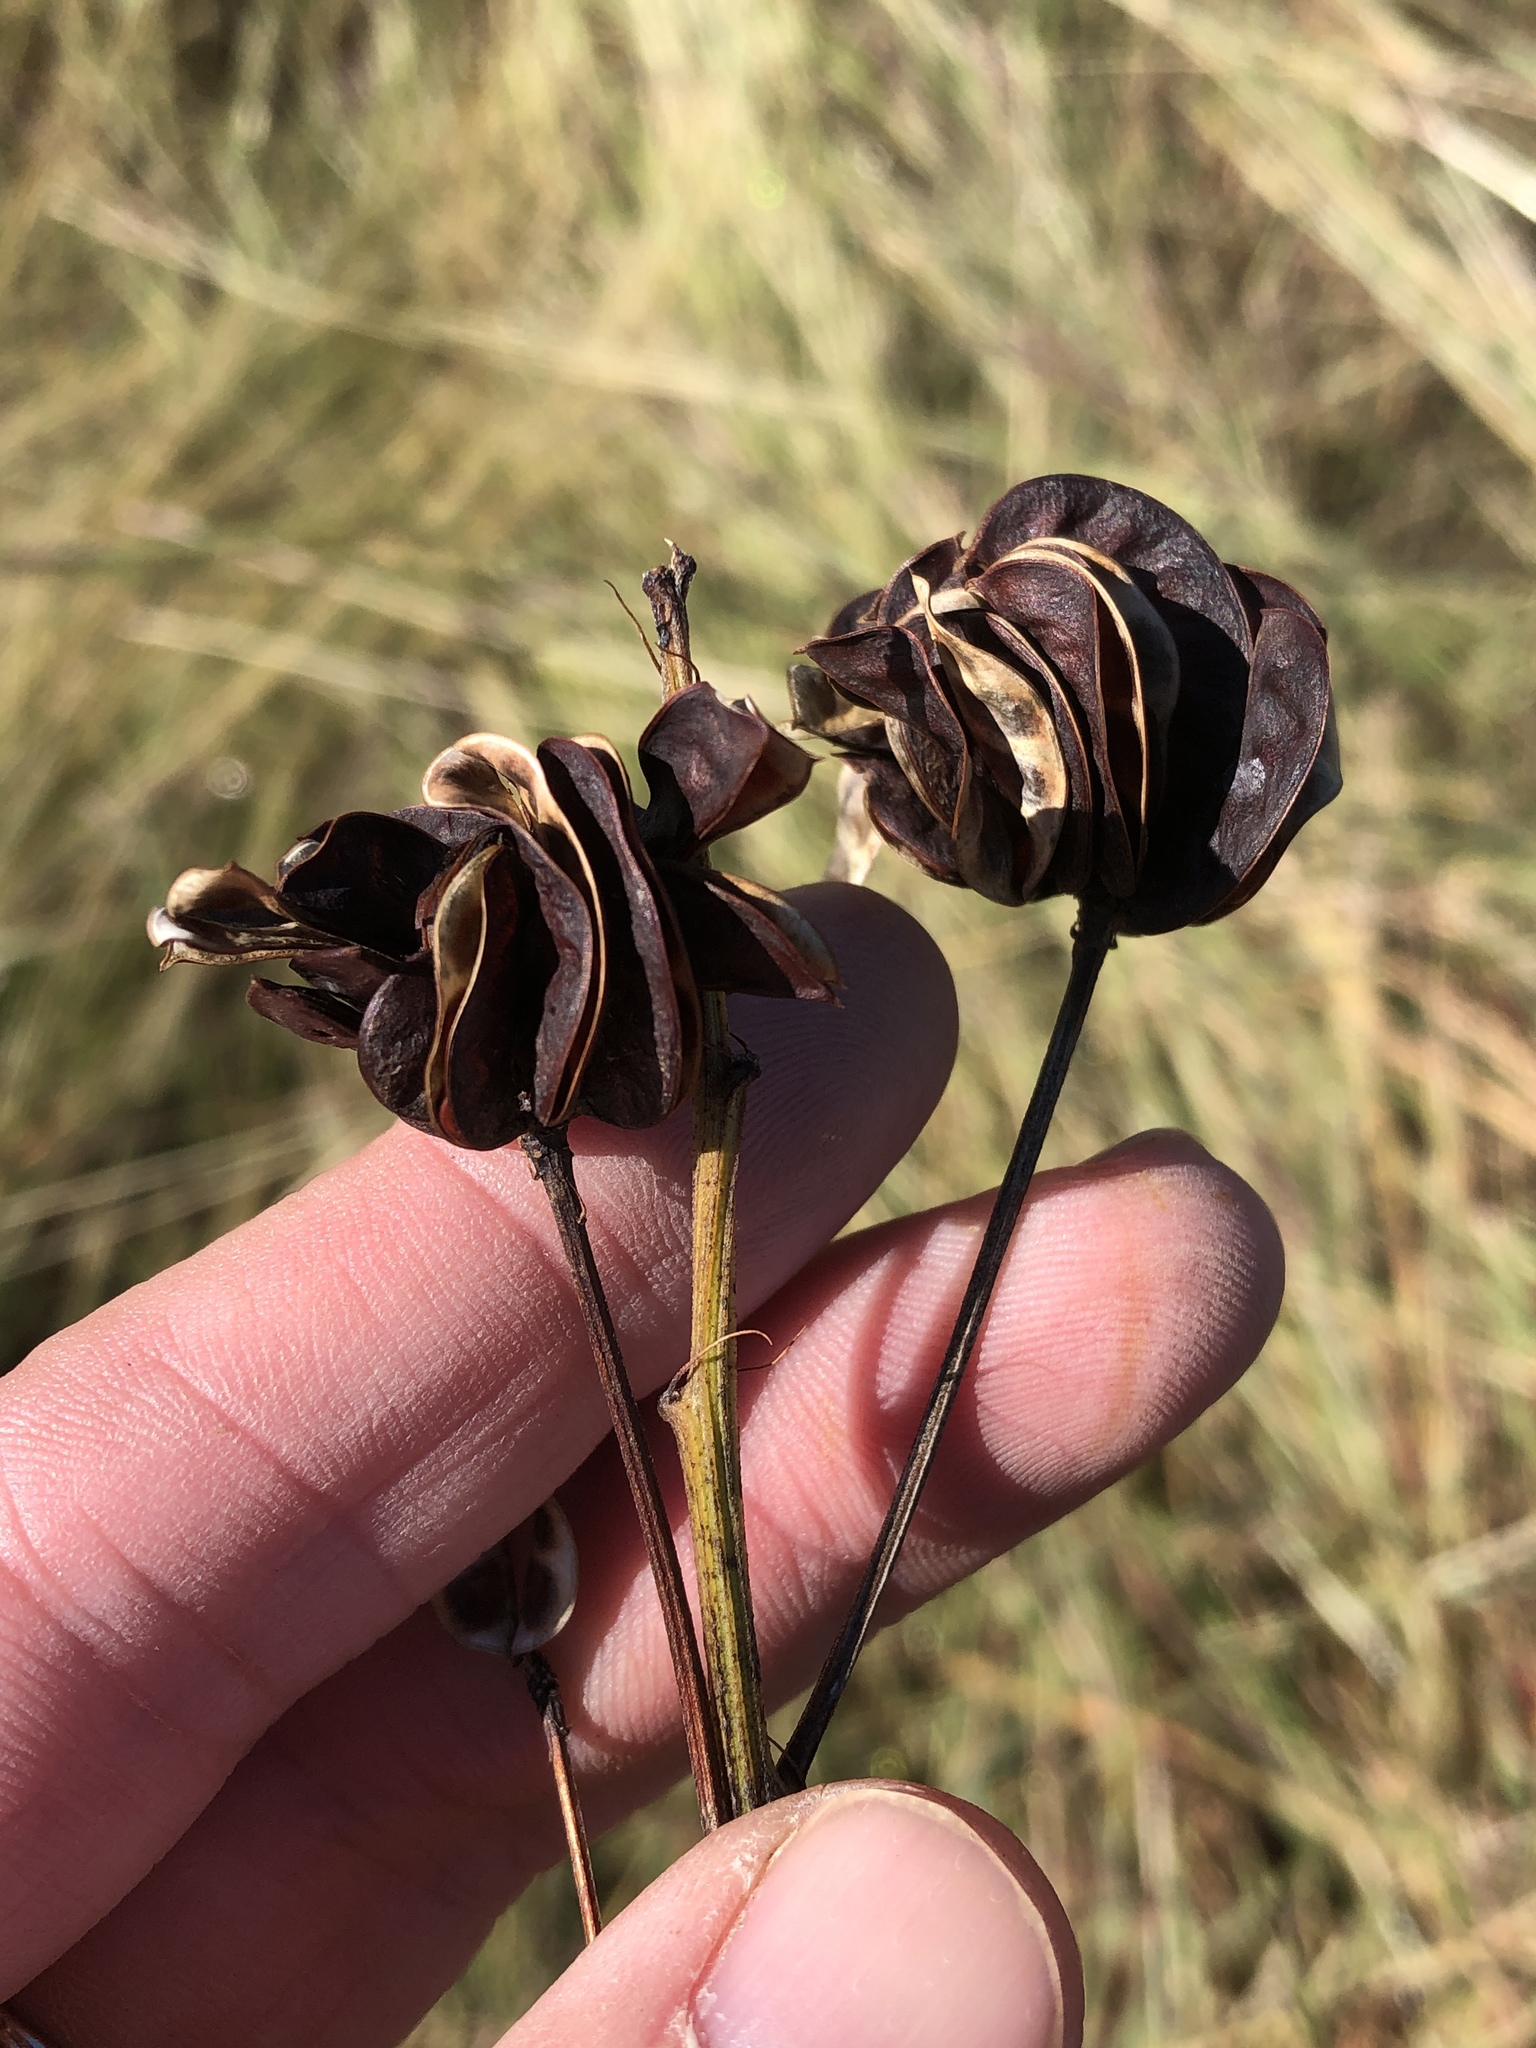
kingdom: Plantae
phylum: Tracheophyta
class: Magnoliopsida
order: Fabales
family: Fabaceae
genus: Desmanthus
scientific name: Desmanthus illinoensis
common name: Illinois bundle-flower
